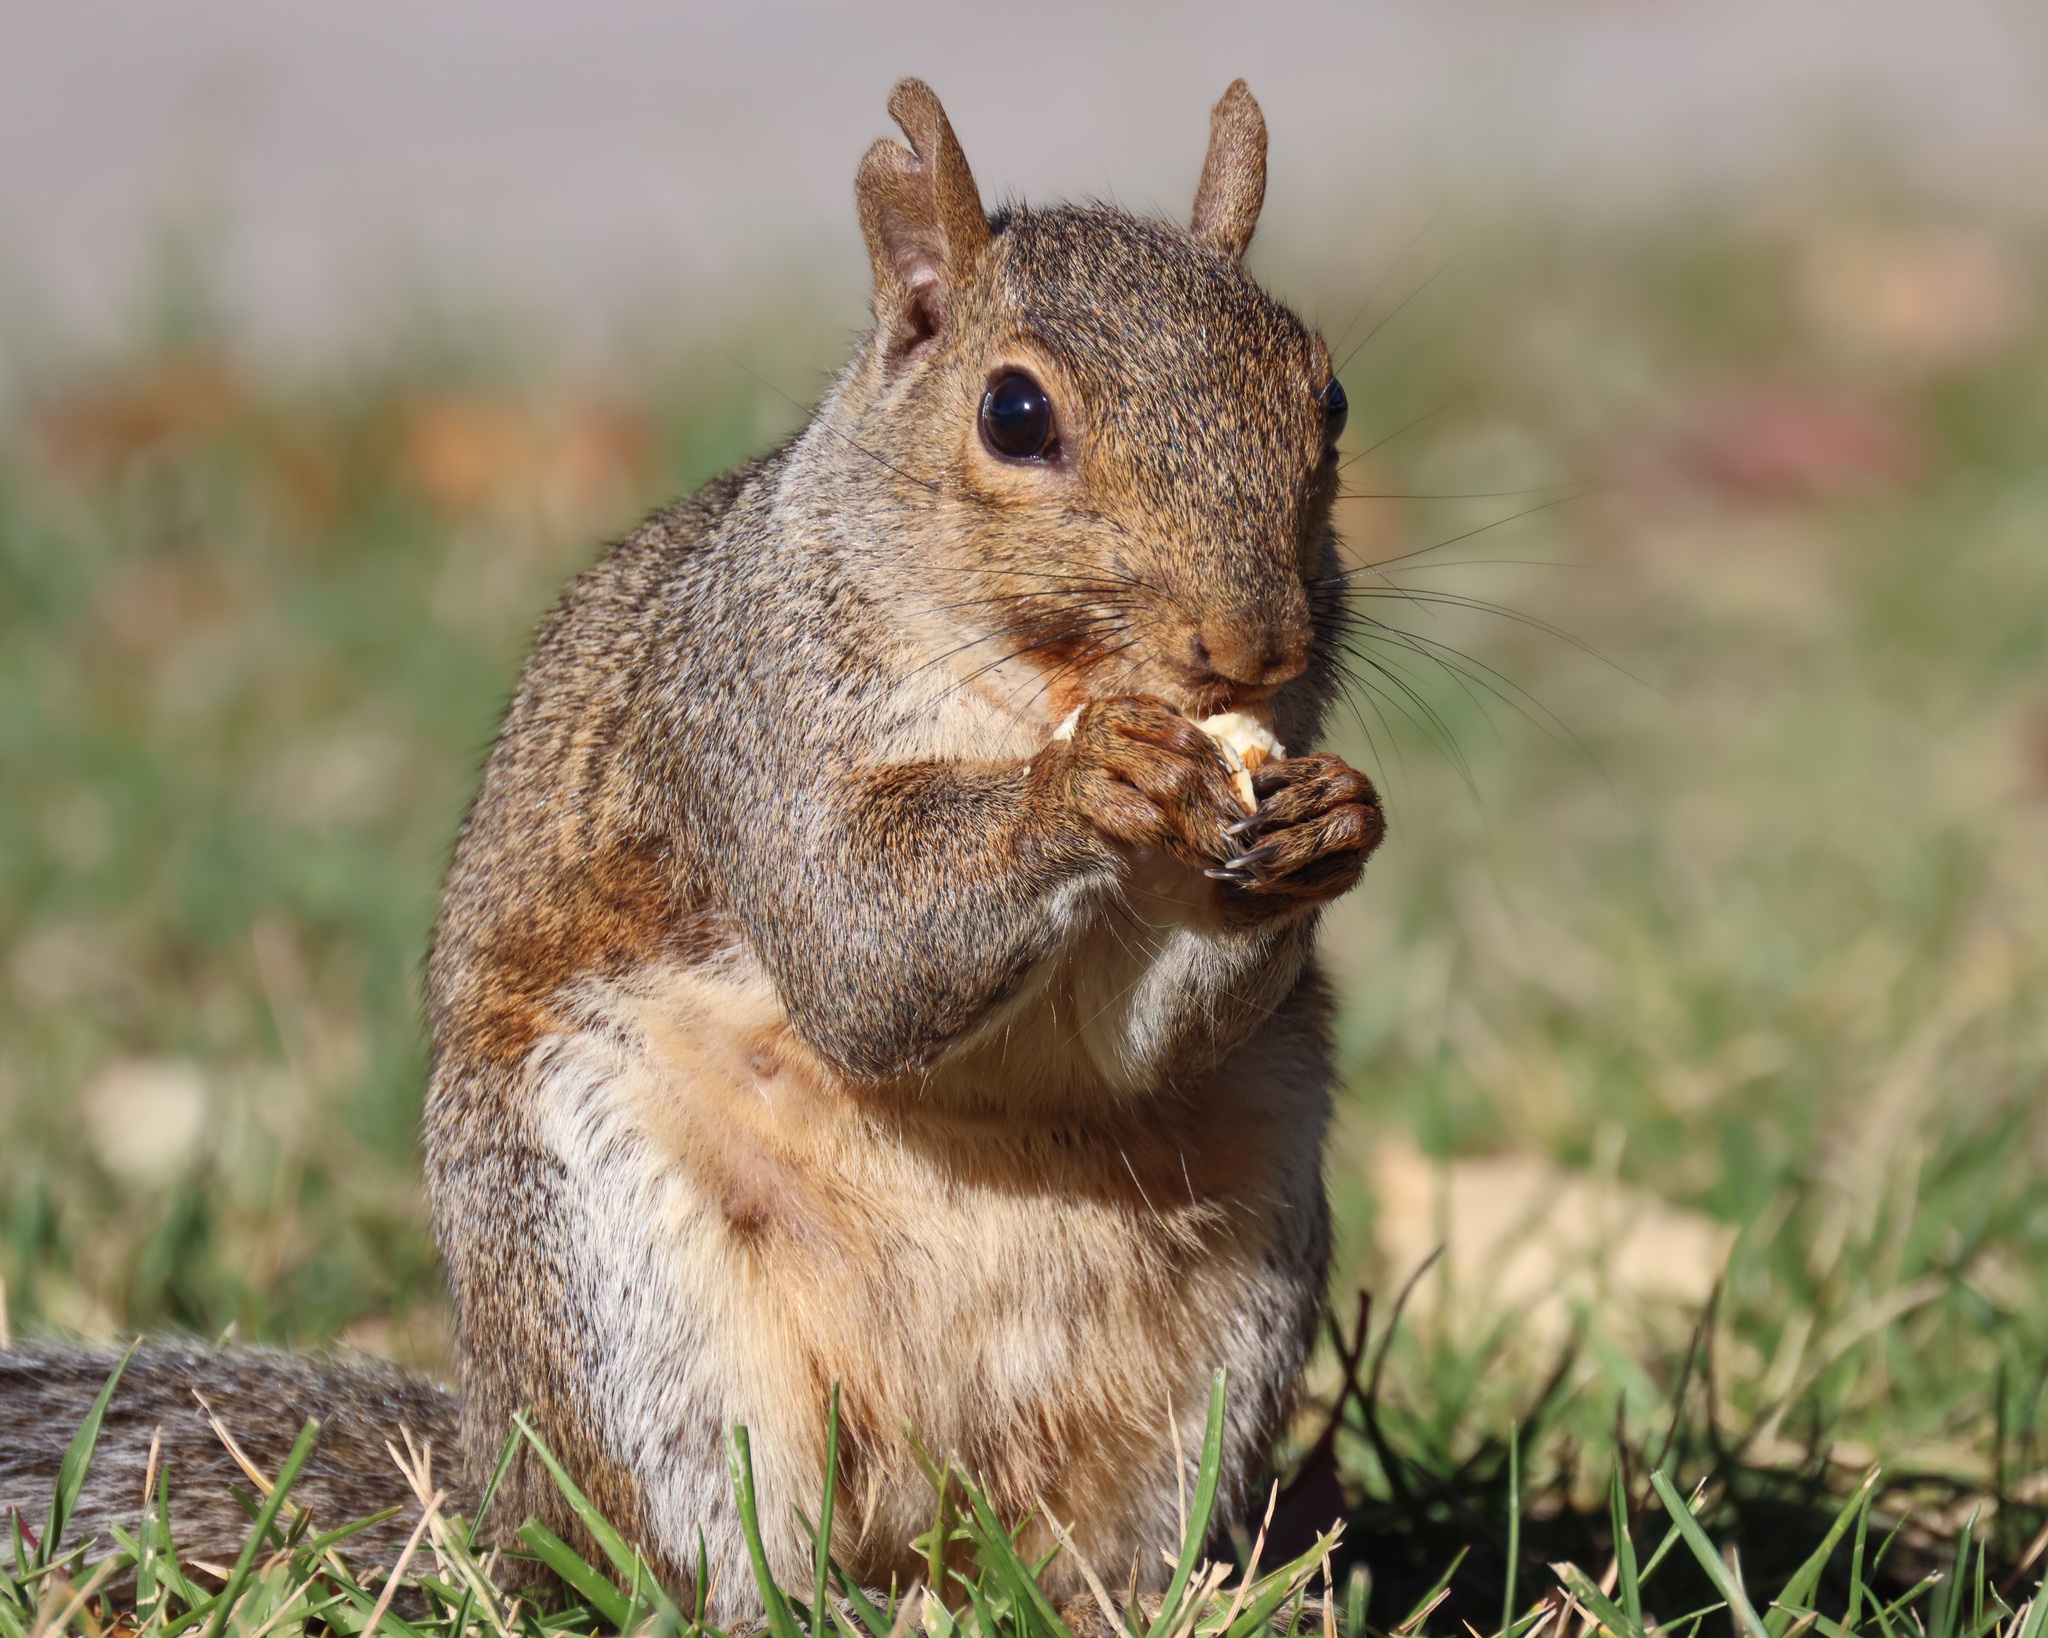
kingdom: Animalia
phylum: Chordata
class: Mammalia
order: Rodentia
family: Sciuridae
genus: Sciurus
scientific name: Sciurus carolinensis
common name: Eastern gray squirrel
